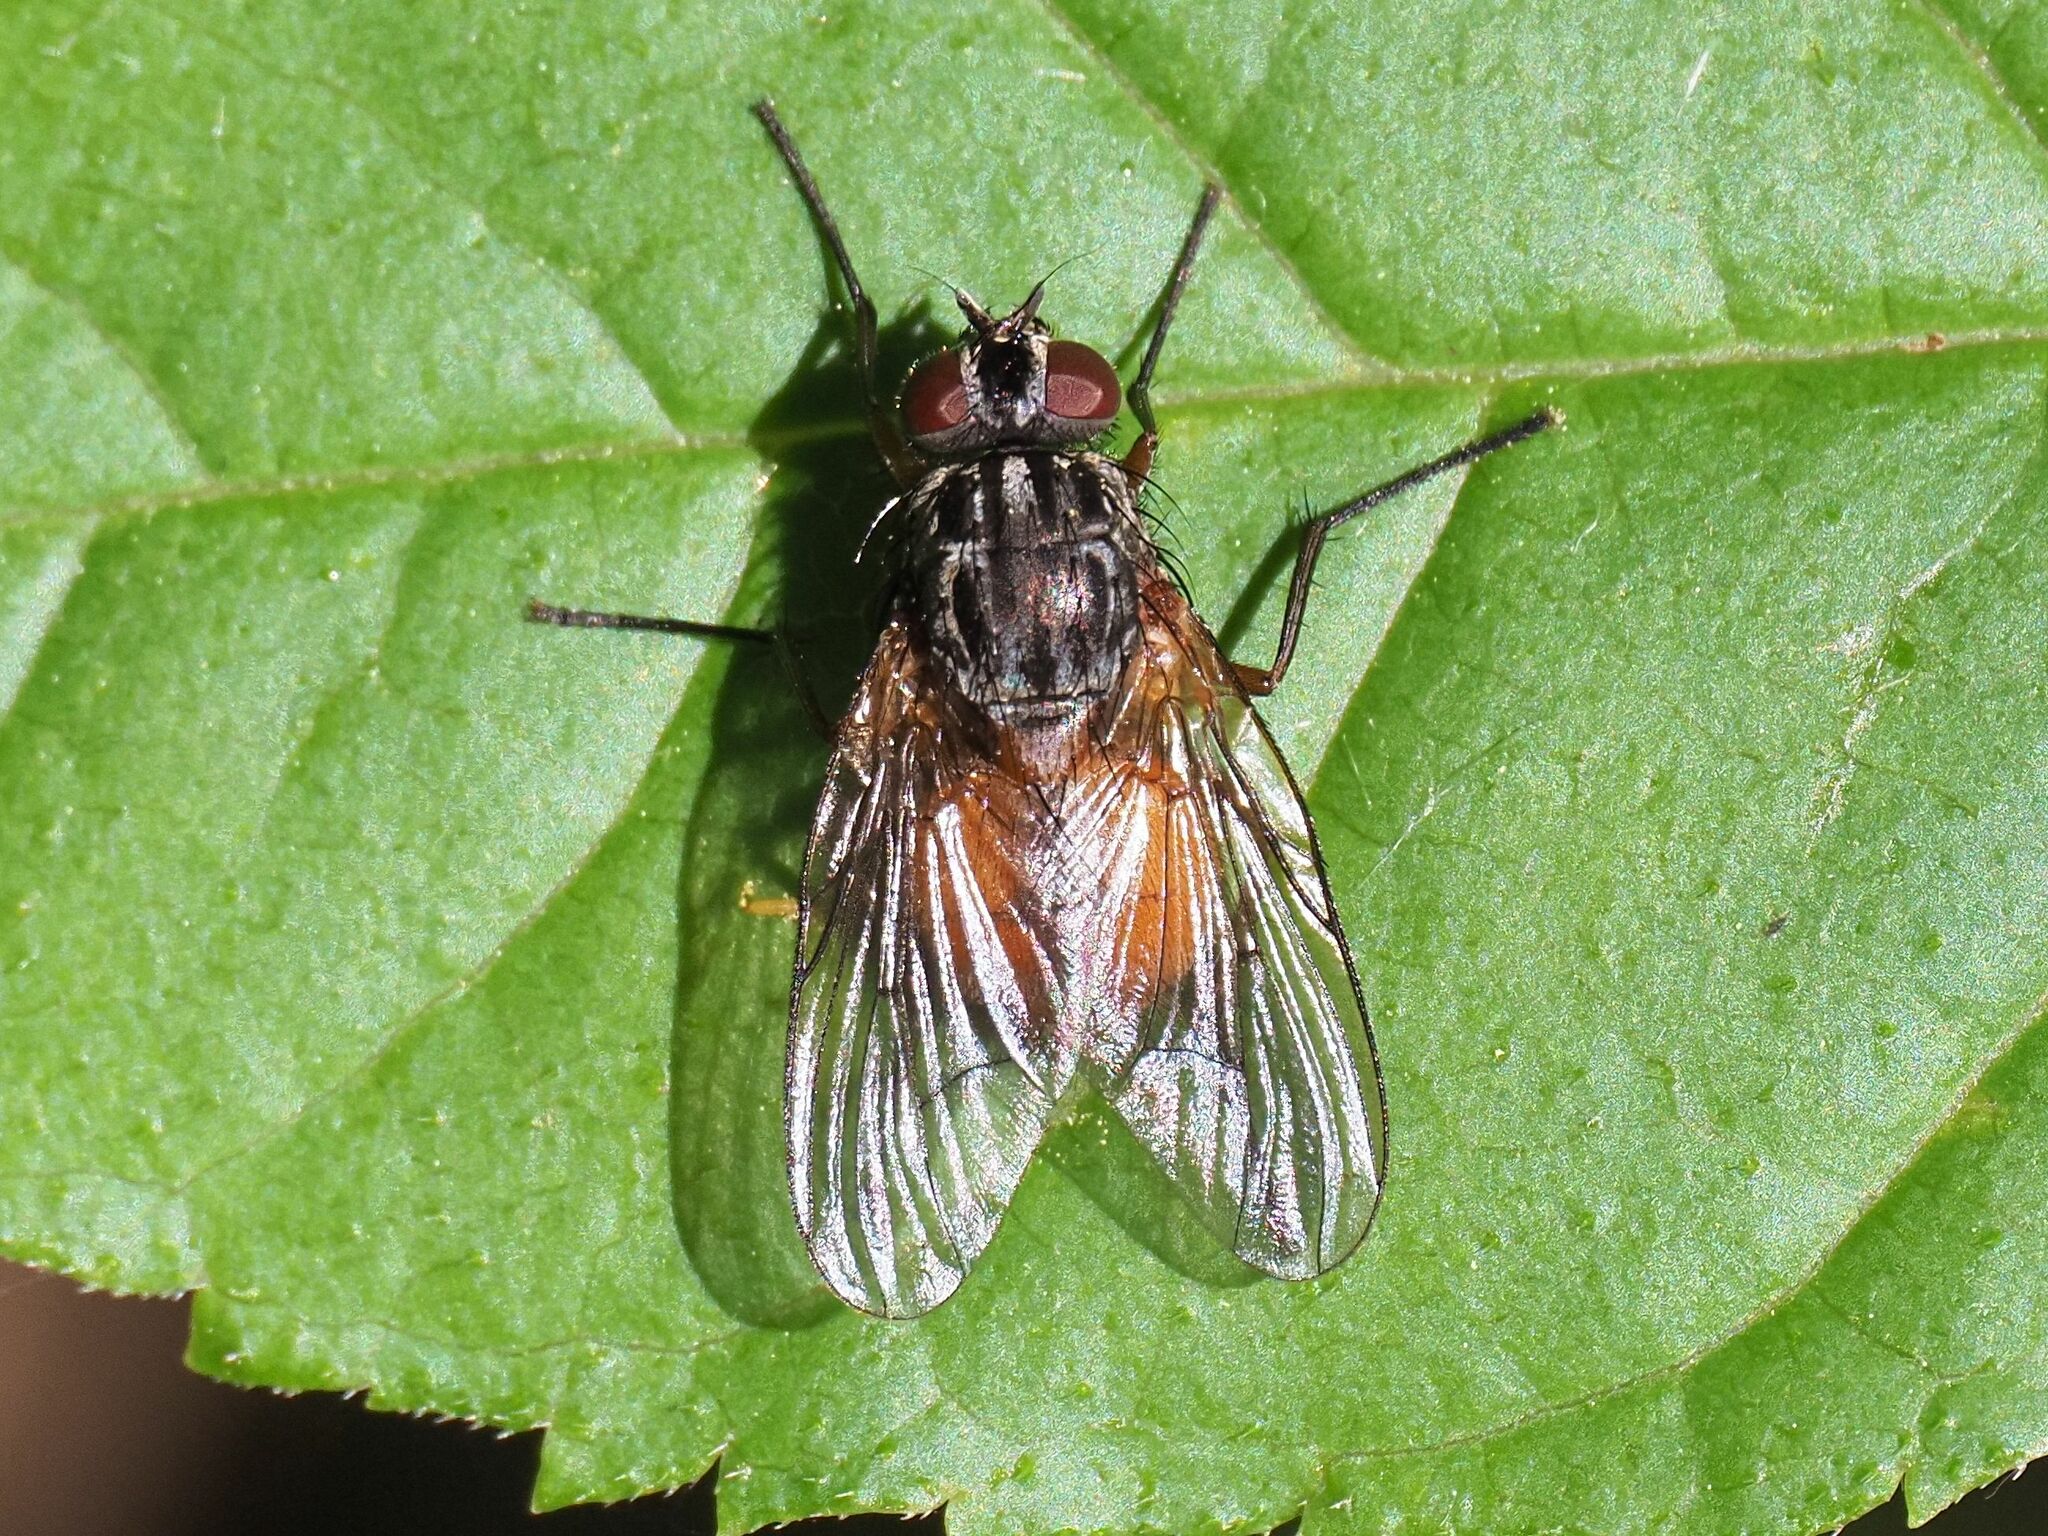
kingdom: Animalia
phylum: Arthropoda
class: Insecta
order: Diptera
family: Muscidae
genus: Phaonia
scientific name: Phaonia subventa
